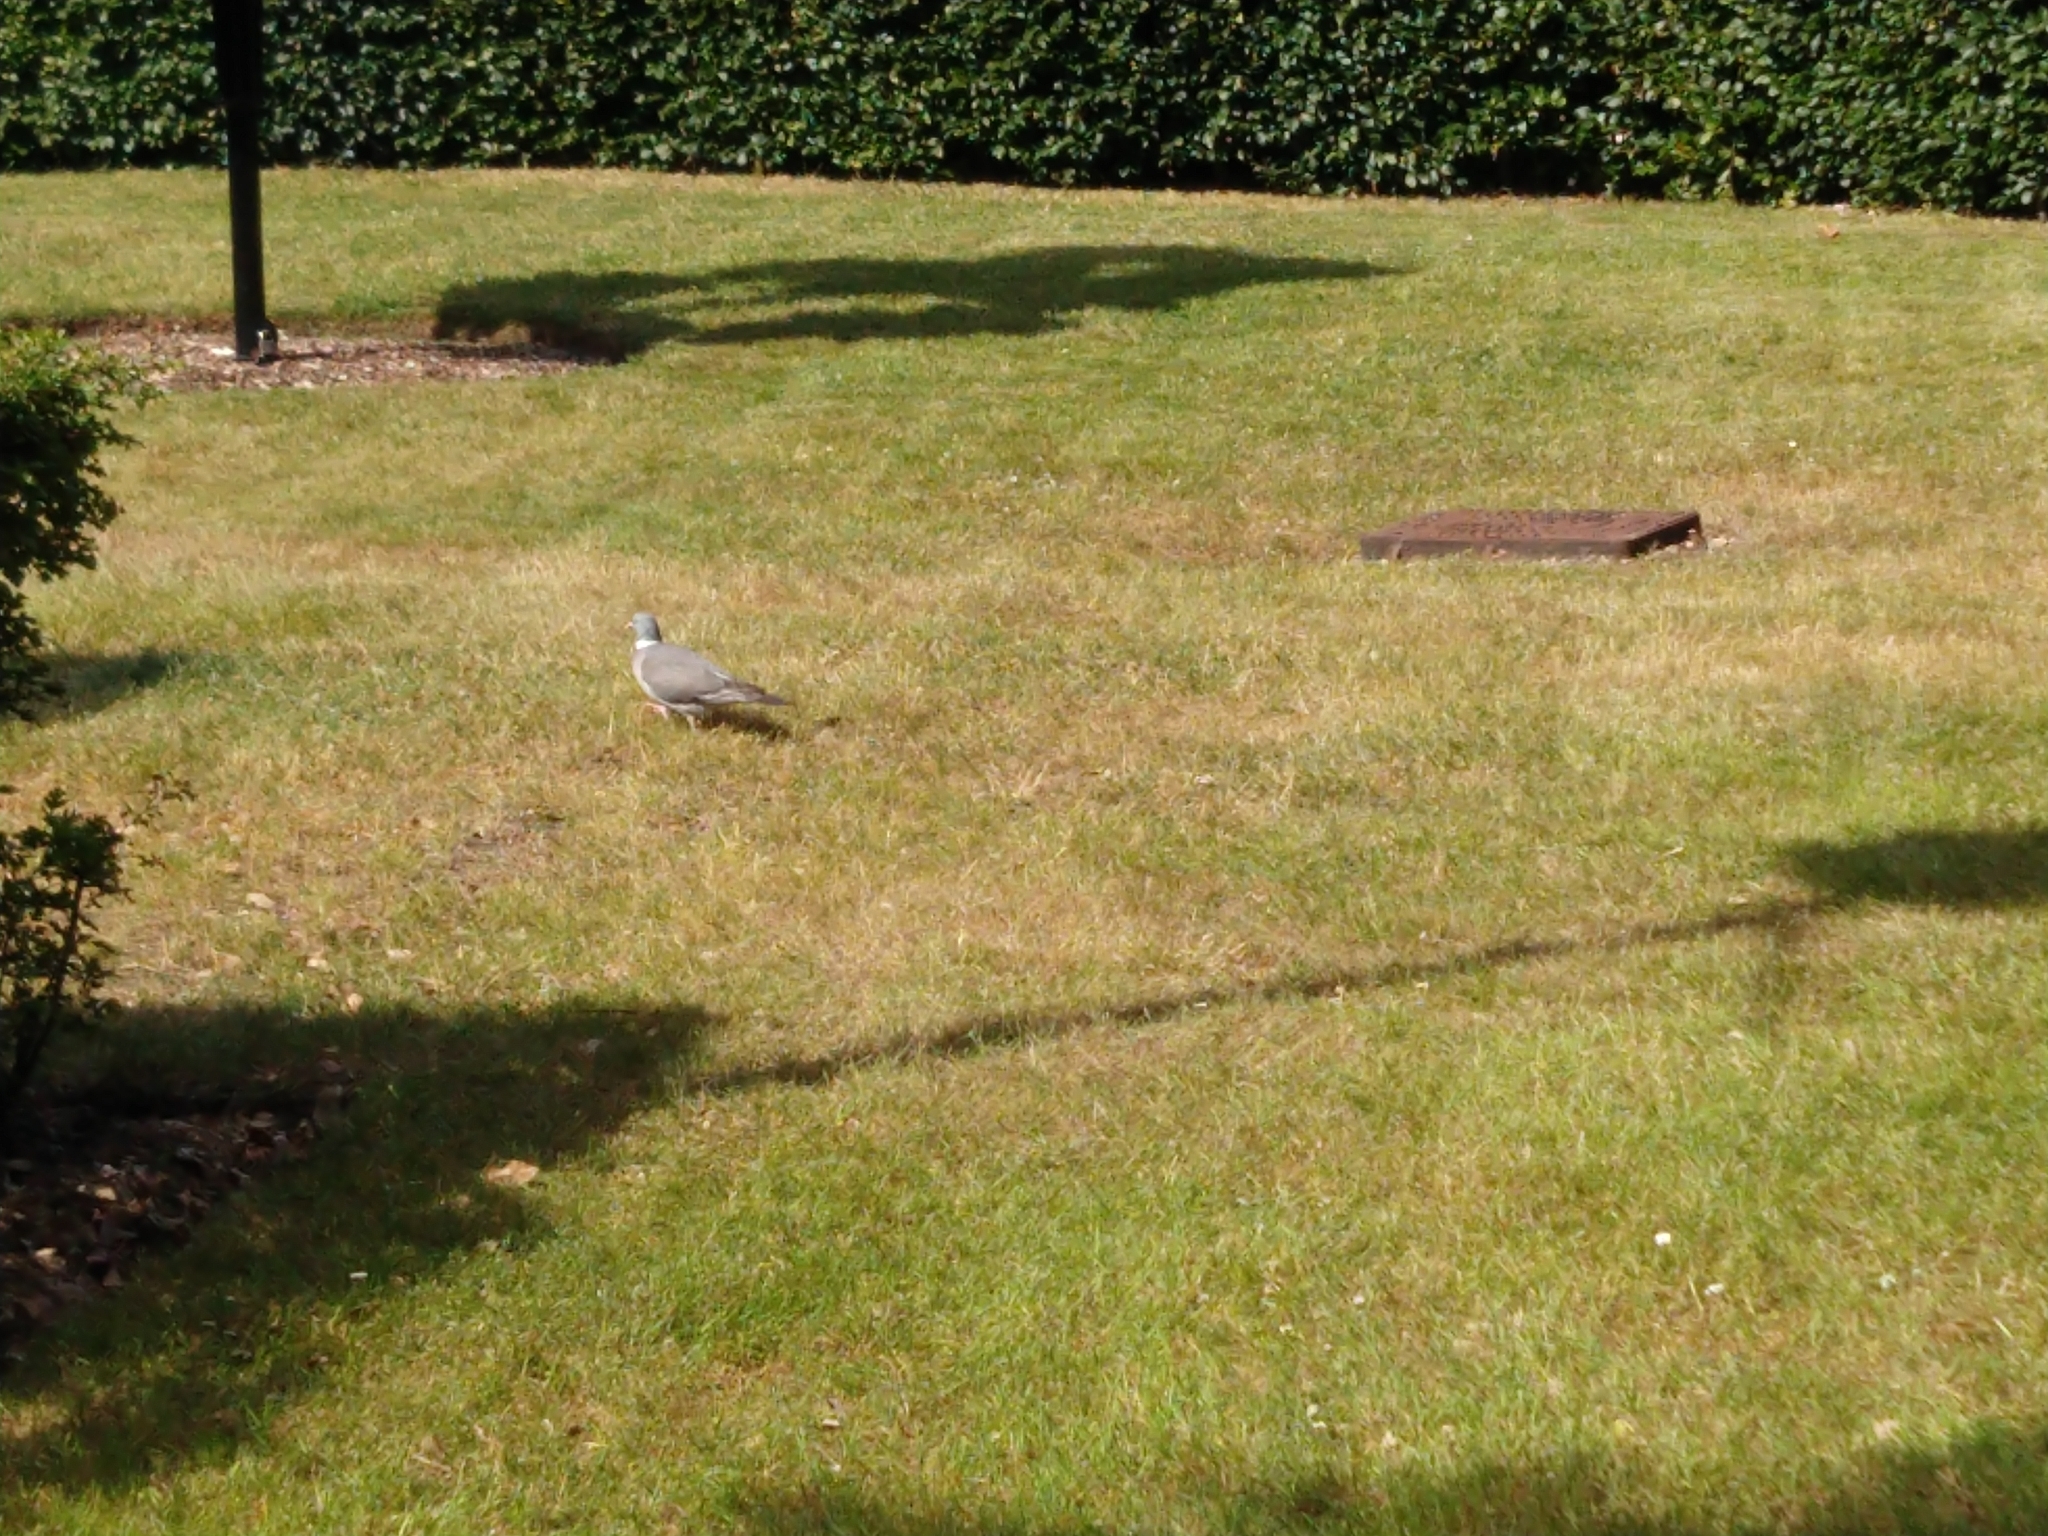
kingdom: Animalia
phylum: Chordata
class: Aves
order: Columbiformes
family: Columbidae
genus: Columba
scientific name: Columba palumbus
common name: Common wood pigeon
